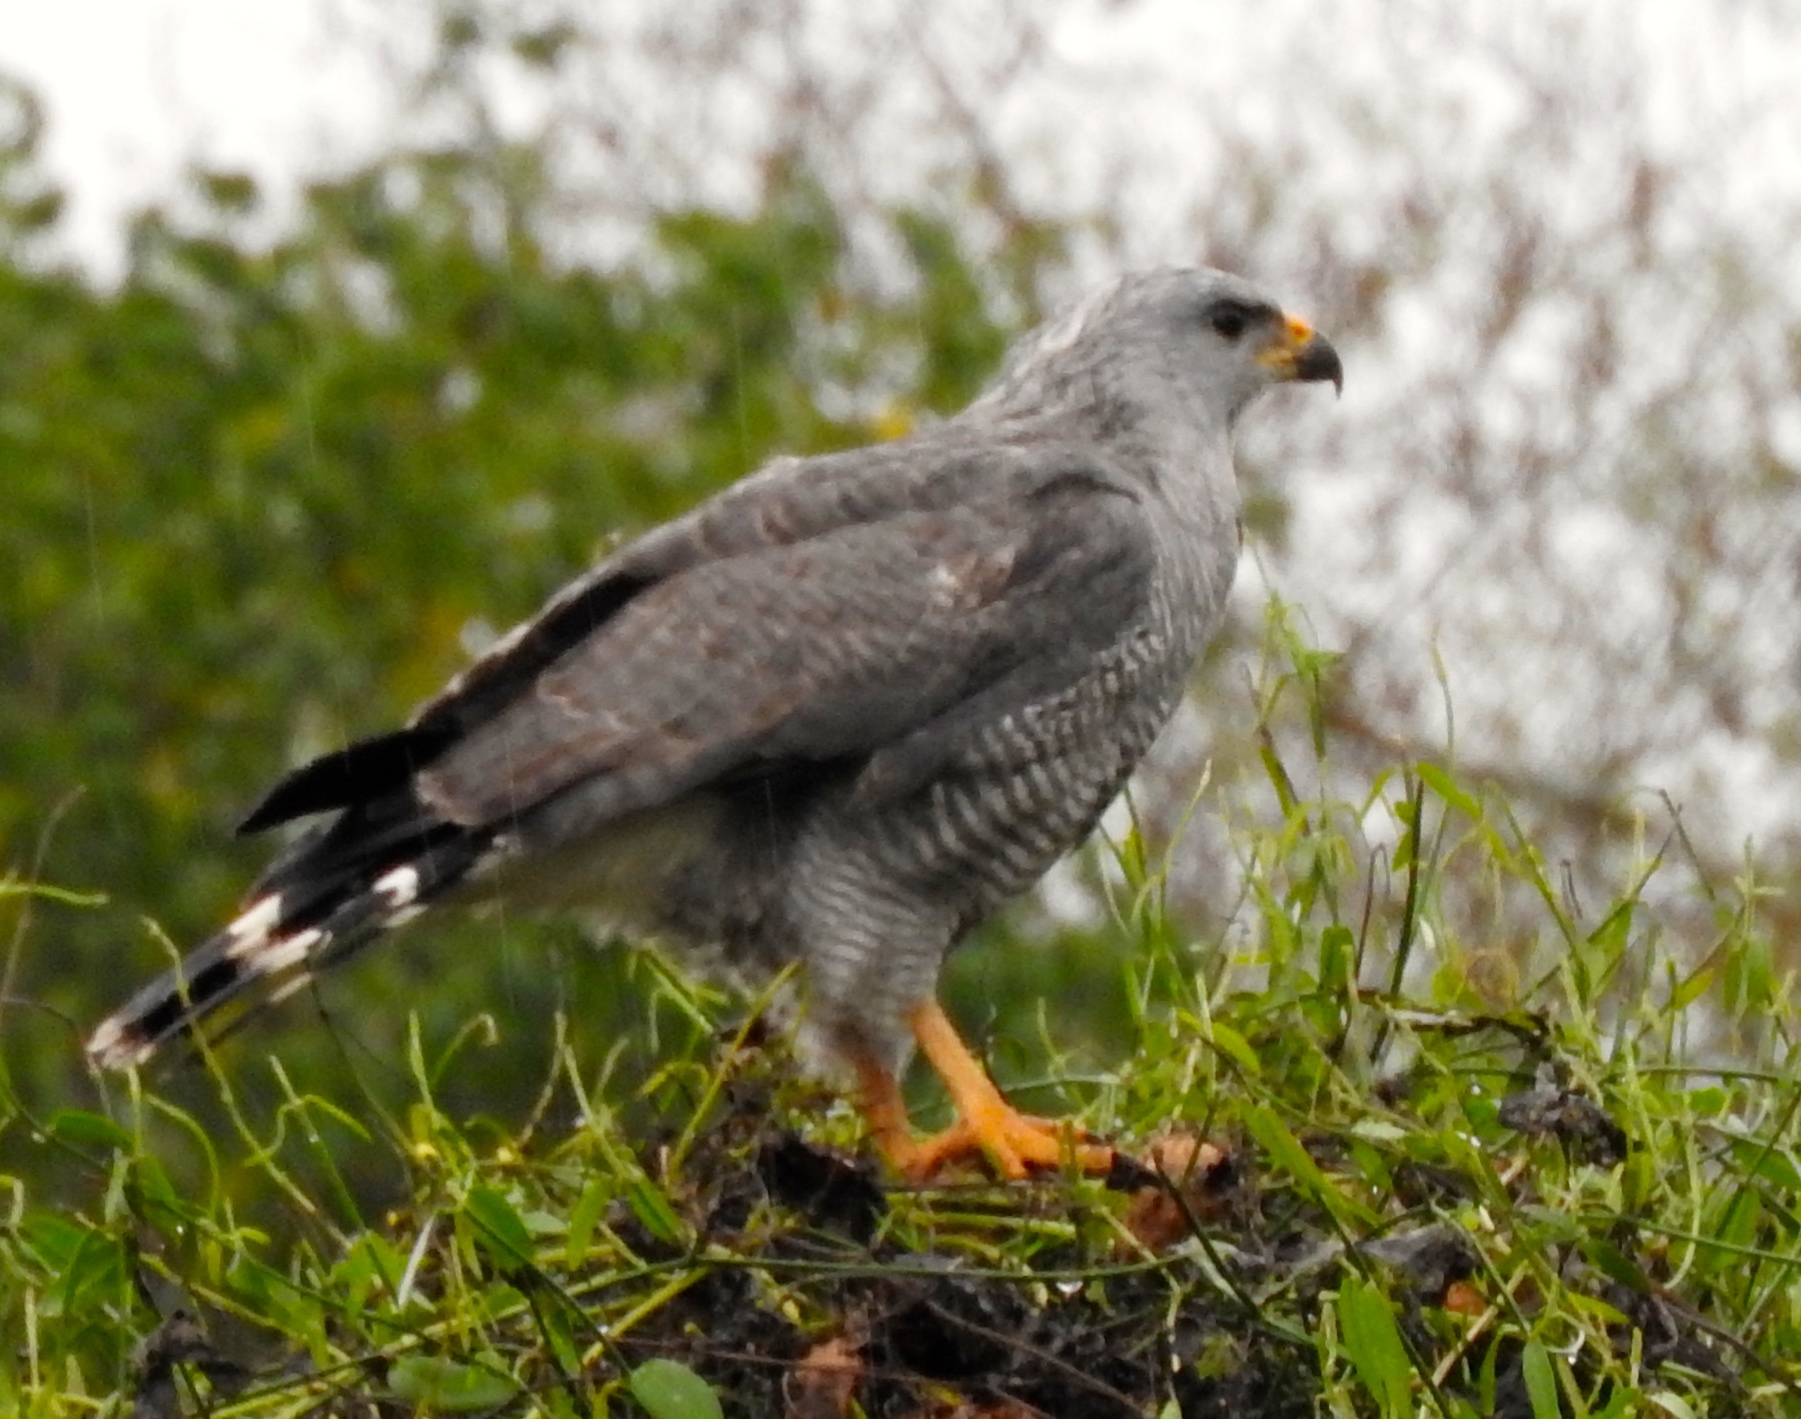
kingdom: Animalia
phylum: Chordata
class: Aves
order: Accipitriformes
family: Accipitridae
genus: Buteo
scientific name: Buteo nitidus
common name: Grey-lined hawk
